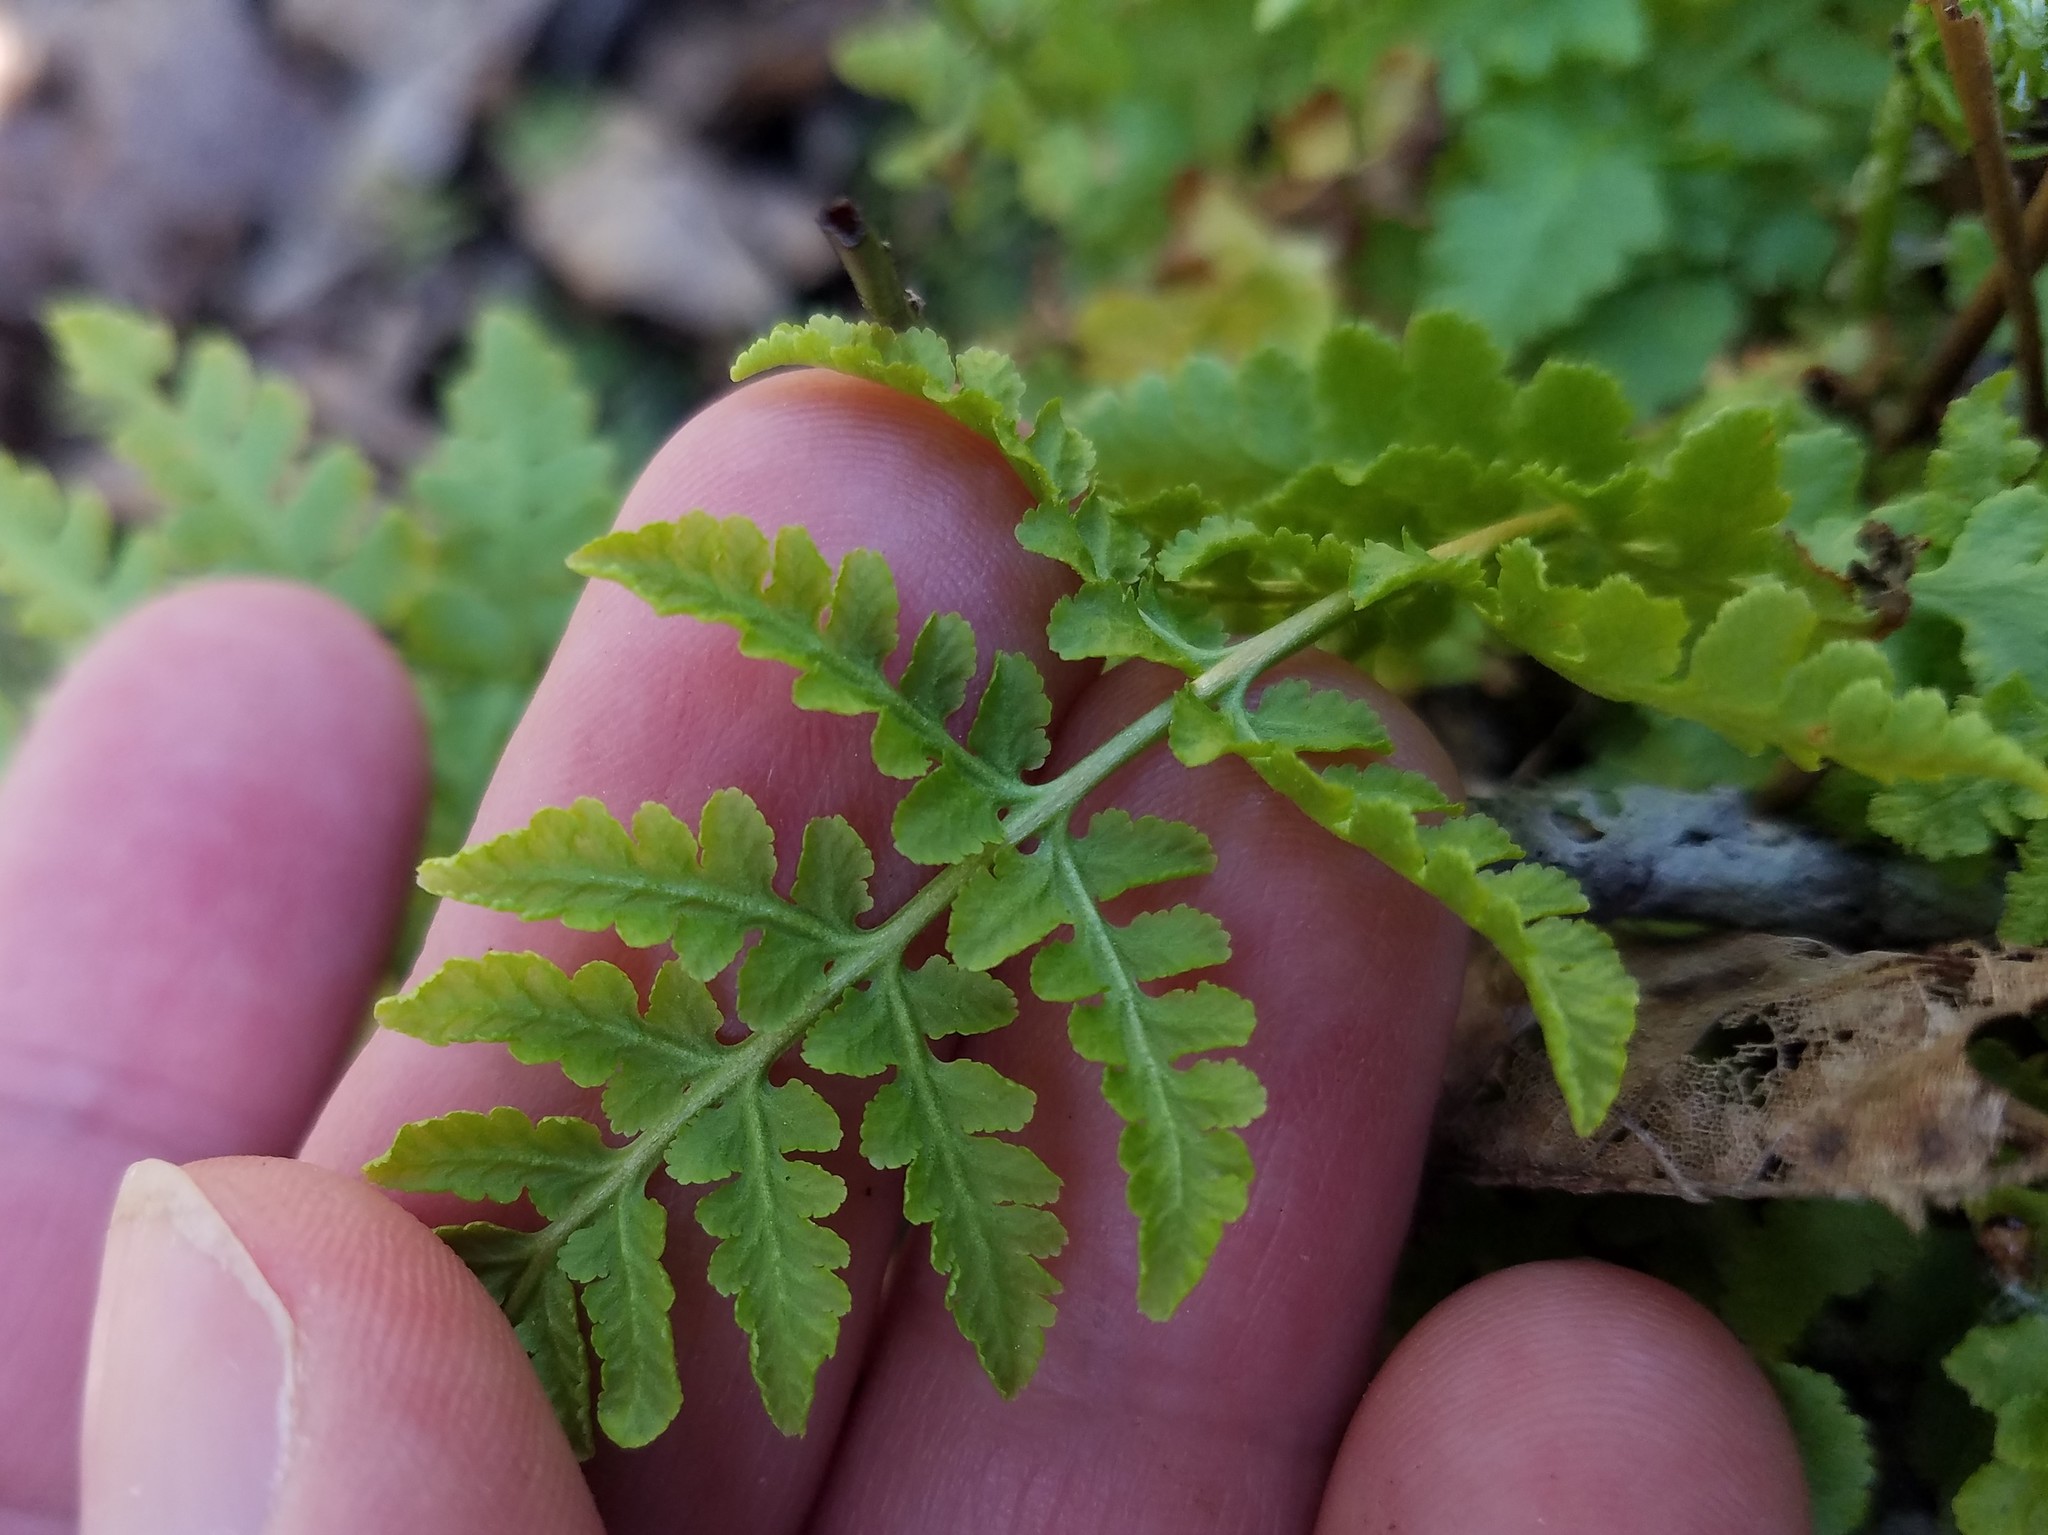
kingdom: Plantae
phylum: Tracheophyta
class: Polypodiopsida
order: Polypodiales
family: Woodsiaceae
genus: Physematium
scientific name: Physematium obtusum
